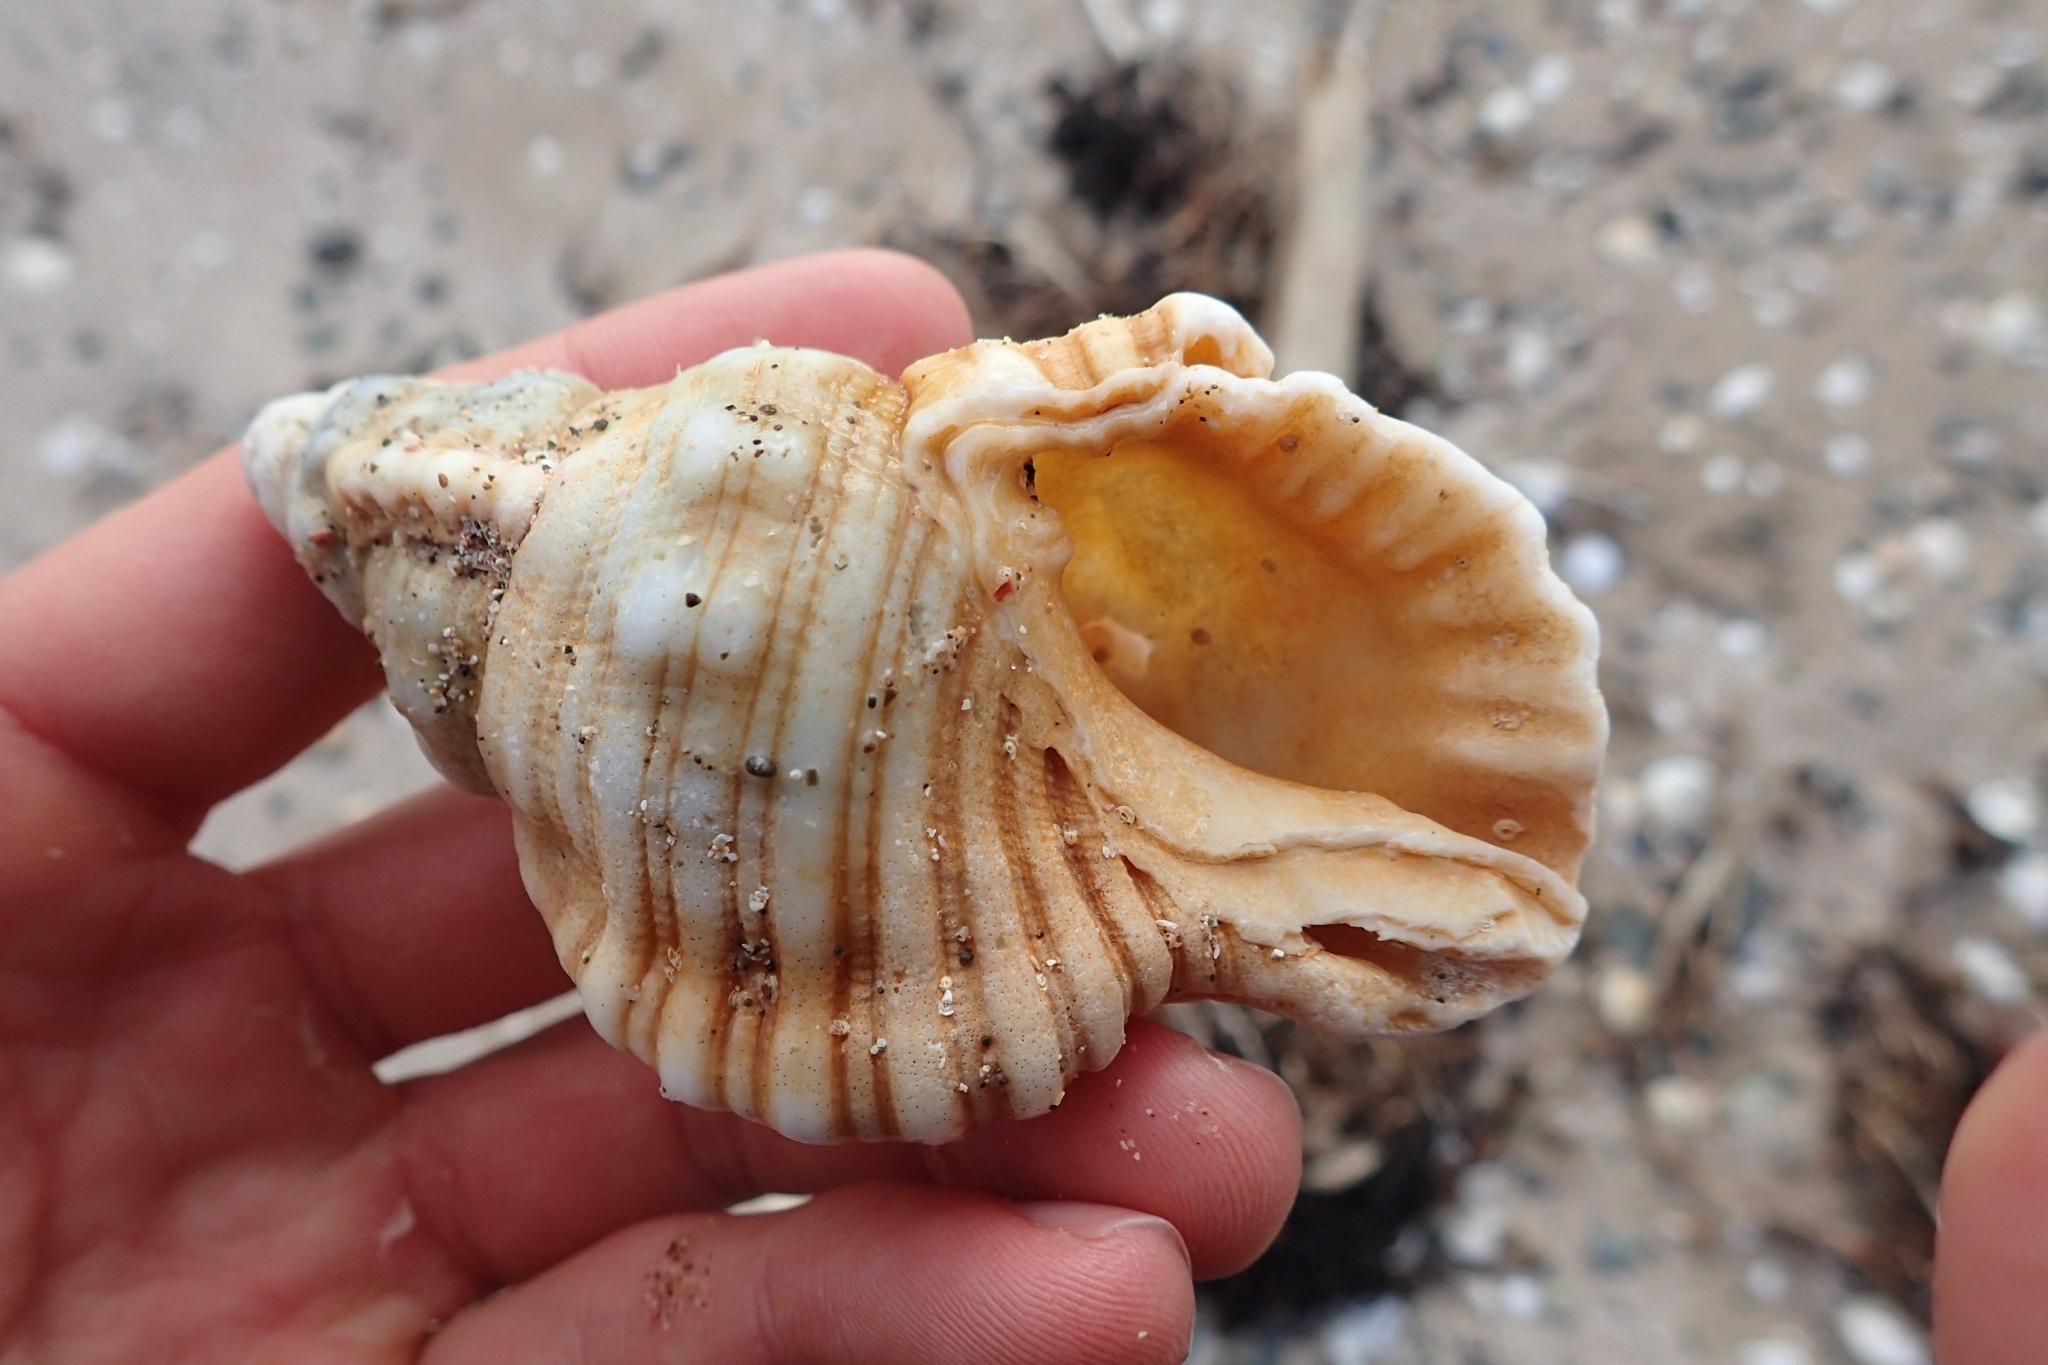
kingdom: Animalia
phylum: Mollusca
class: Gastropoda
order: Littorinimorpha
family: Cymatiidae
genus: Cabestana
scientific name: Cabestana spengleri
